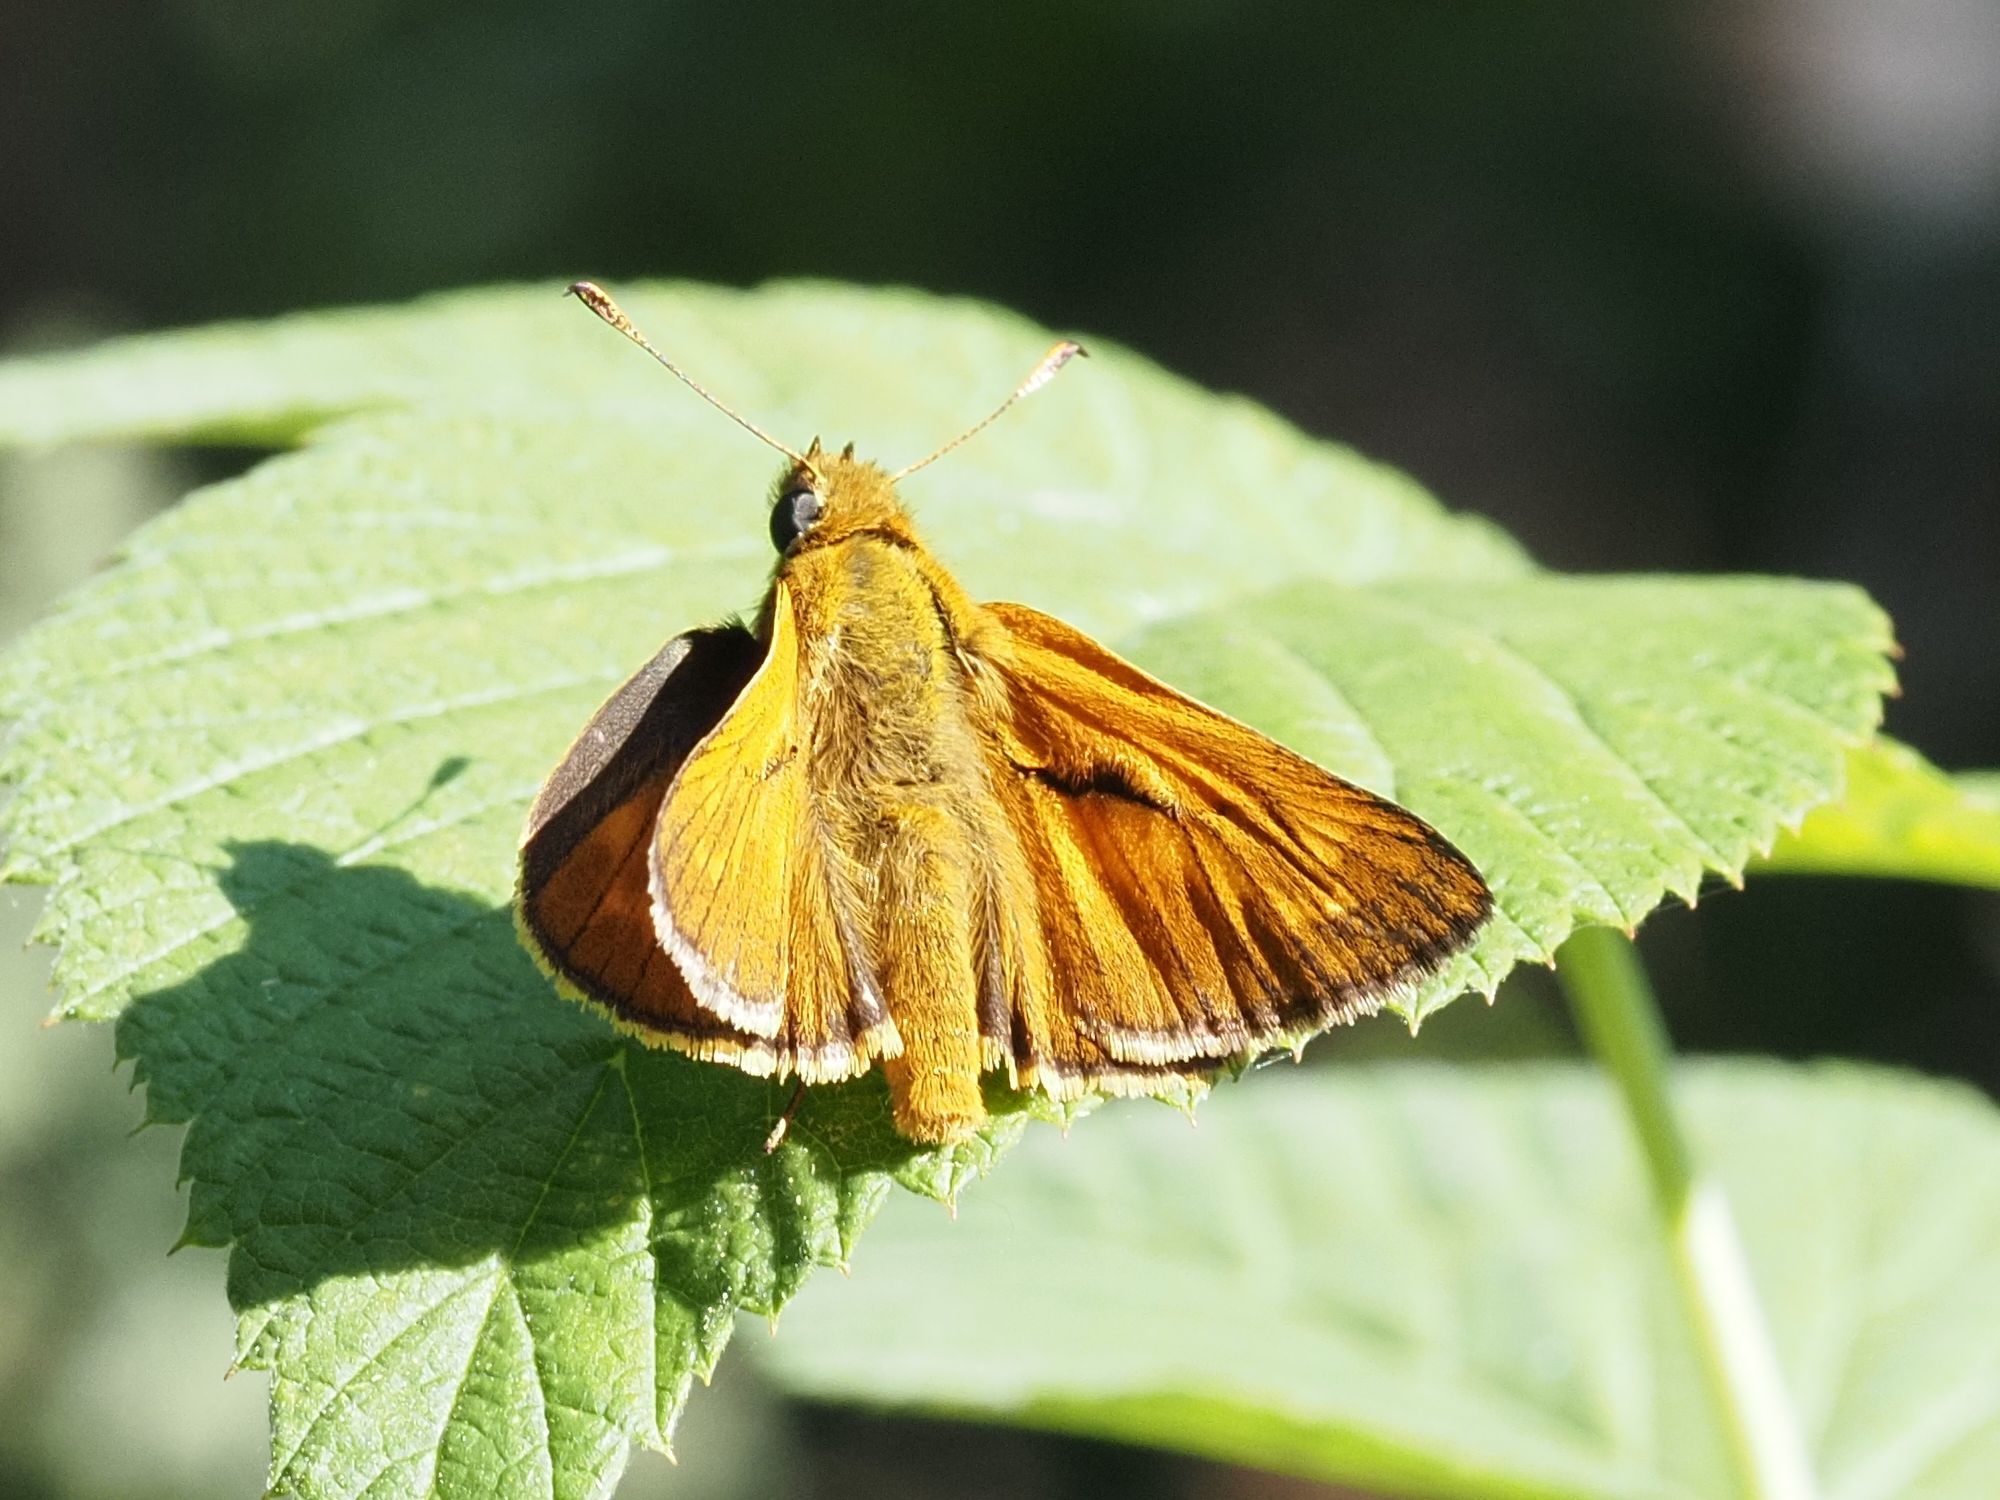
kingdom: Animalia
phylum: Arthropoda
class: Insecta
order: Lepidoptera
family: Hesperiidae
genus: Ochlodes
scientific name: Ochlodes venata
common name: Large skipper
